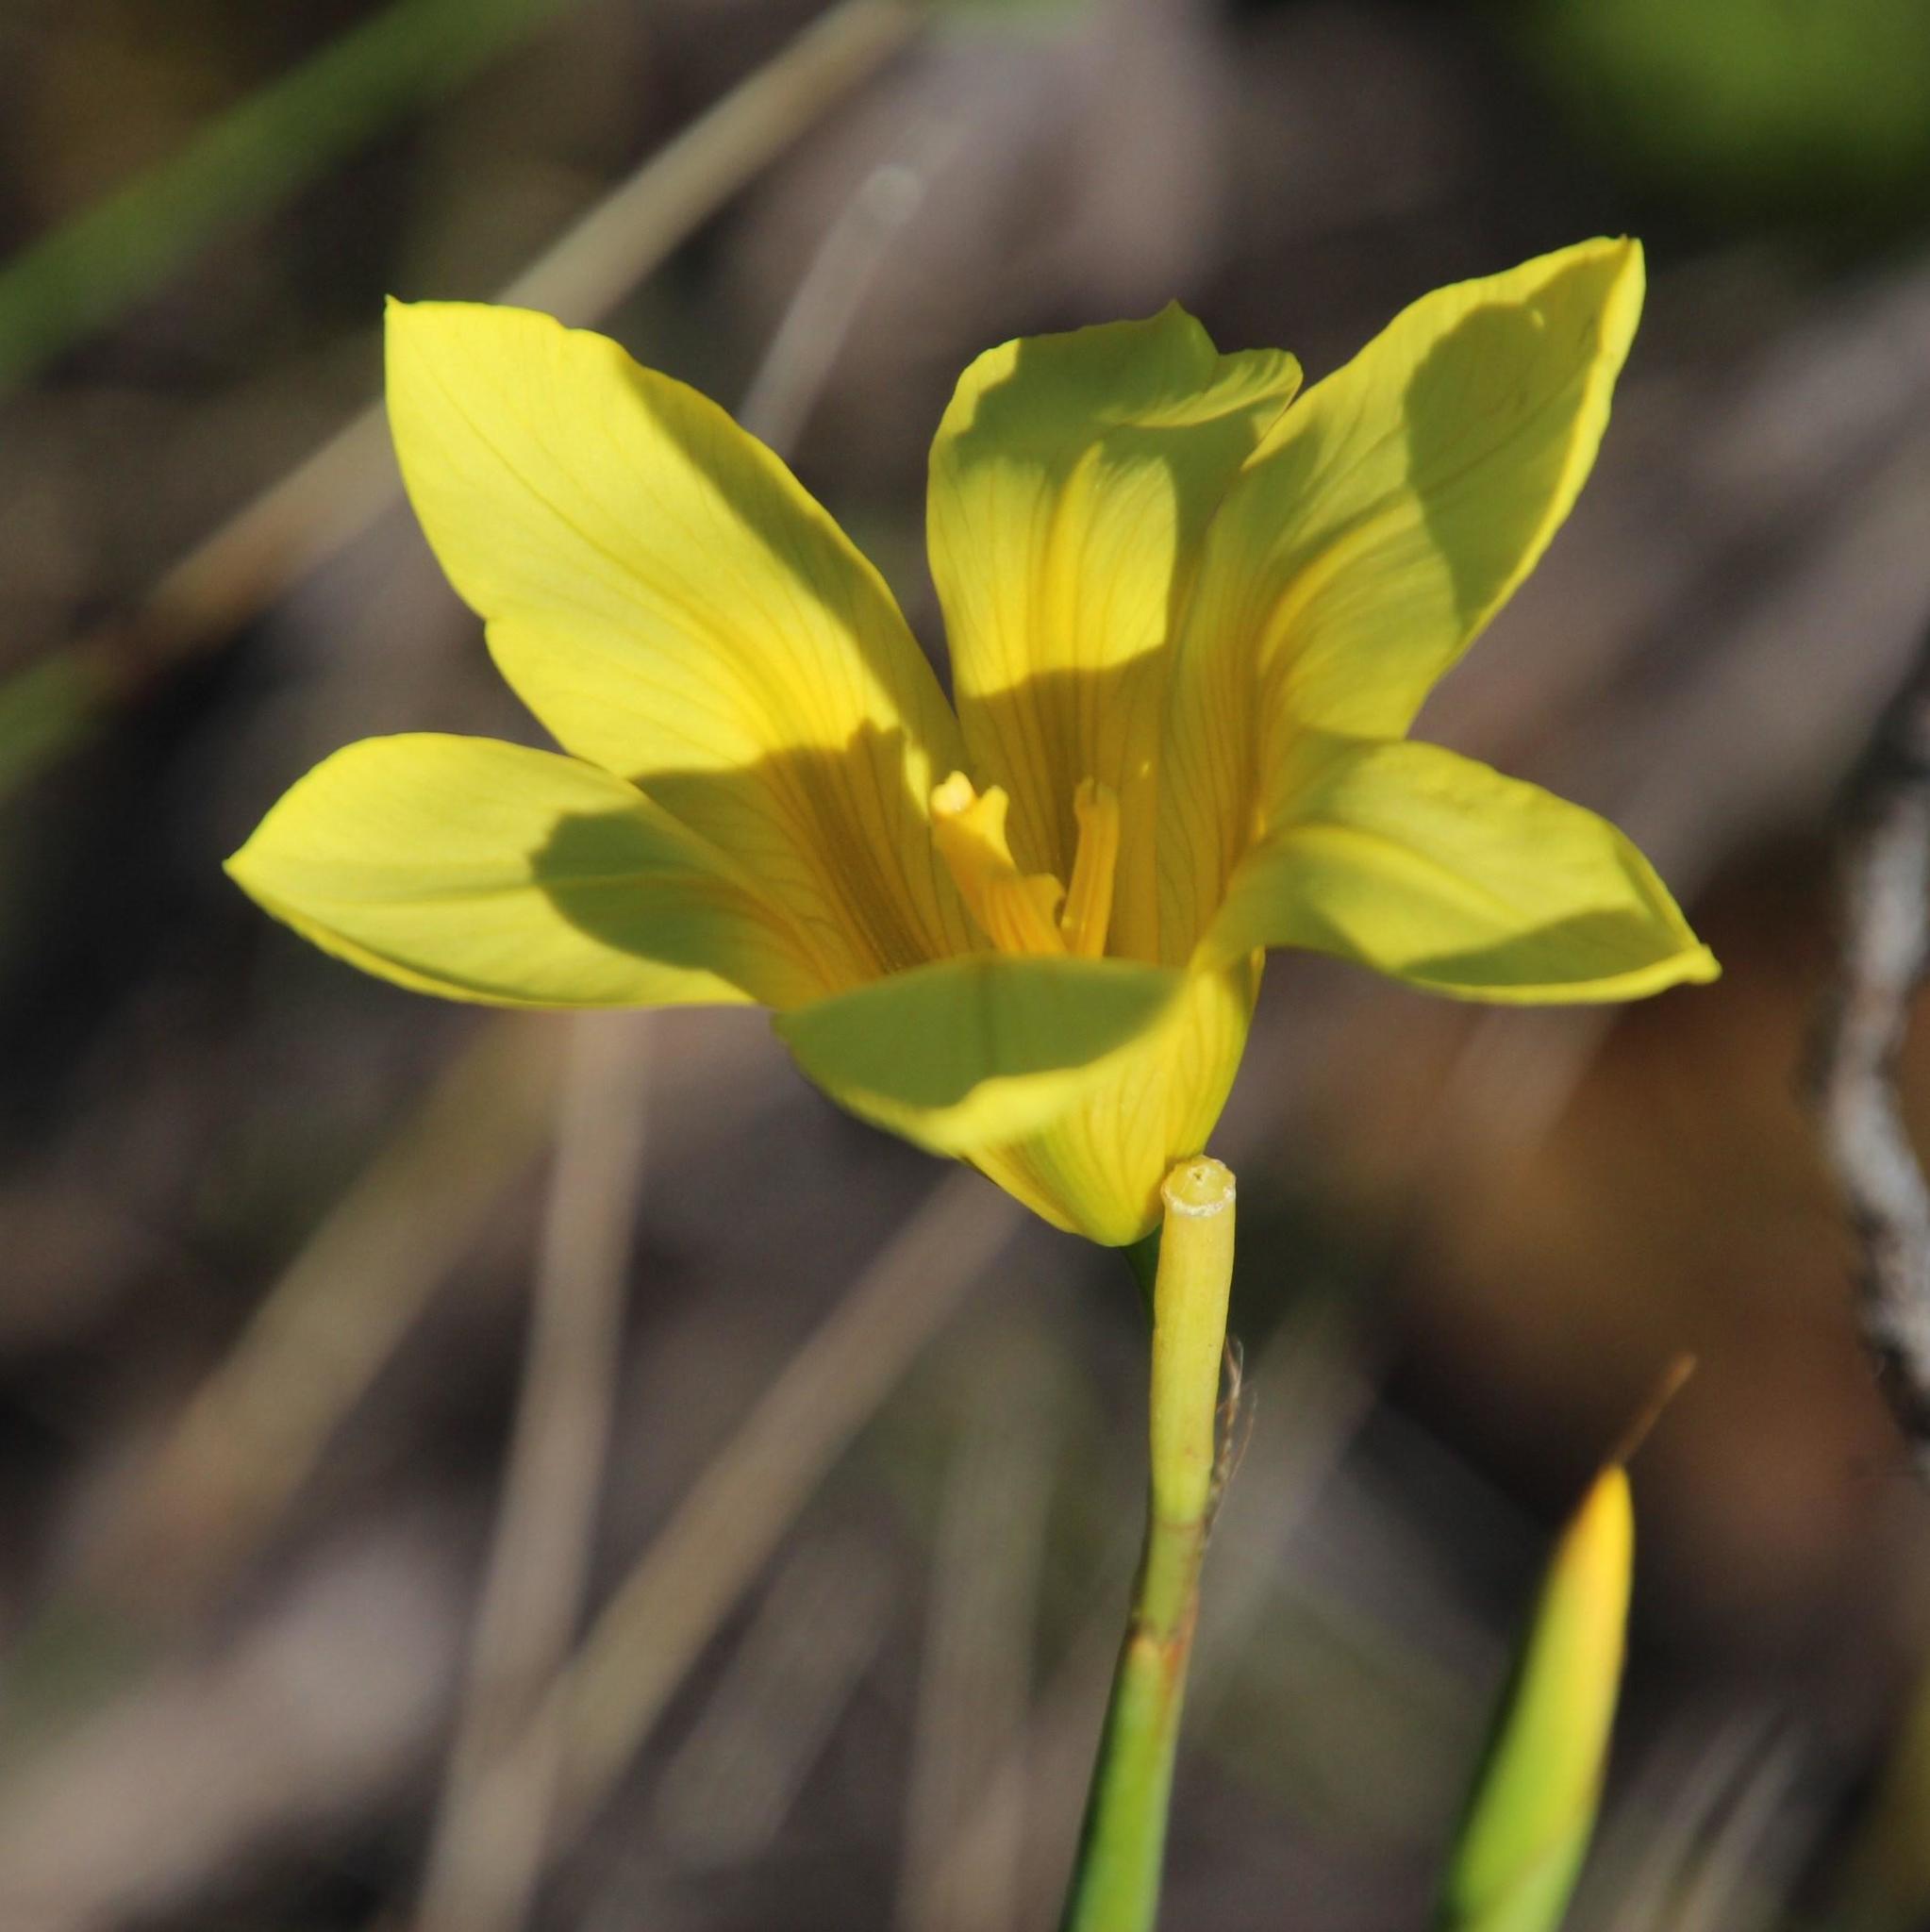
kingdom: Plantae
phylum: Tracheophyta
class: Liliopsida
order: Asparagales
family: Iridaceae
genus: Moraea
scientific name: Moraea ochroleuca
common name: Red tulp
